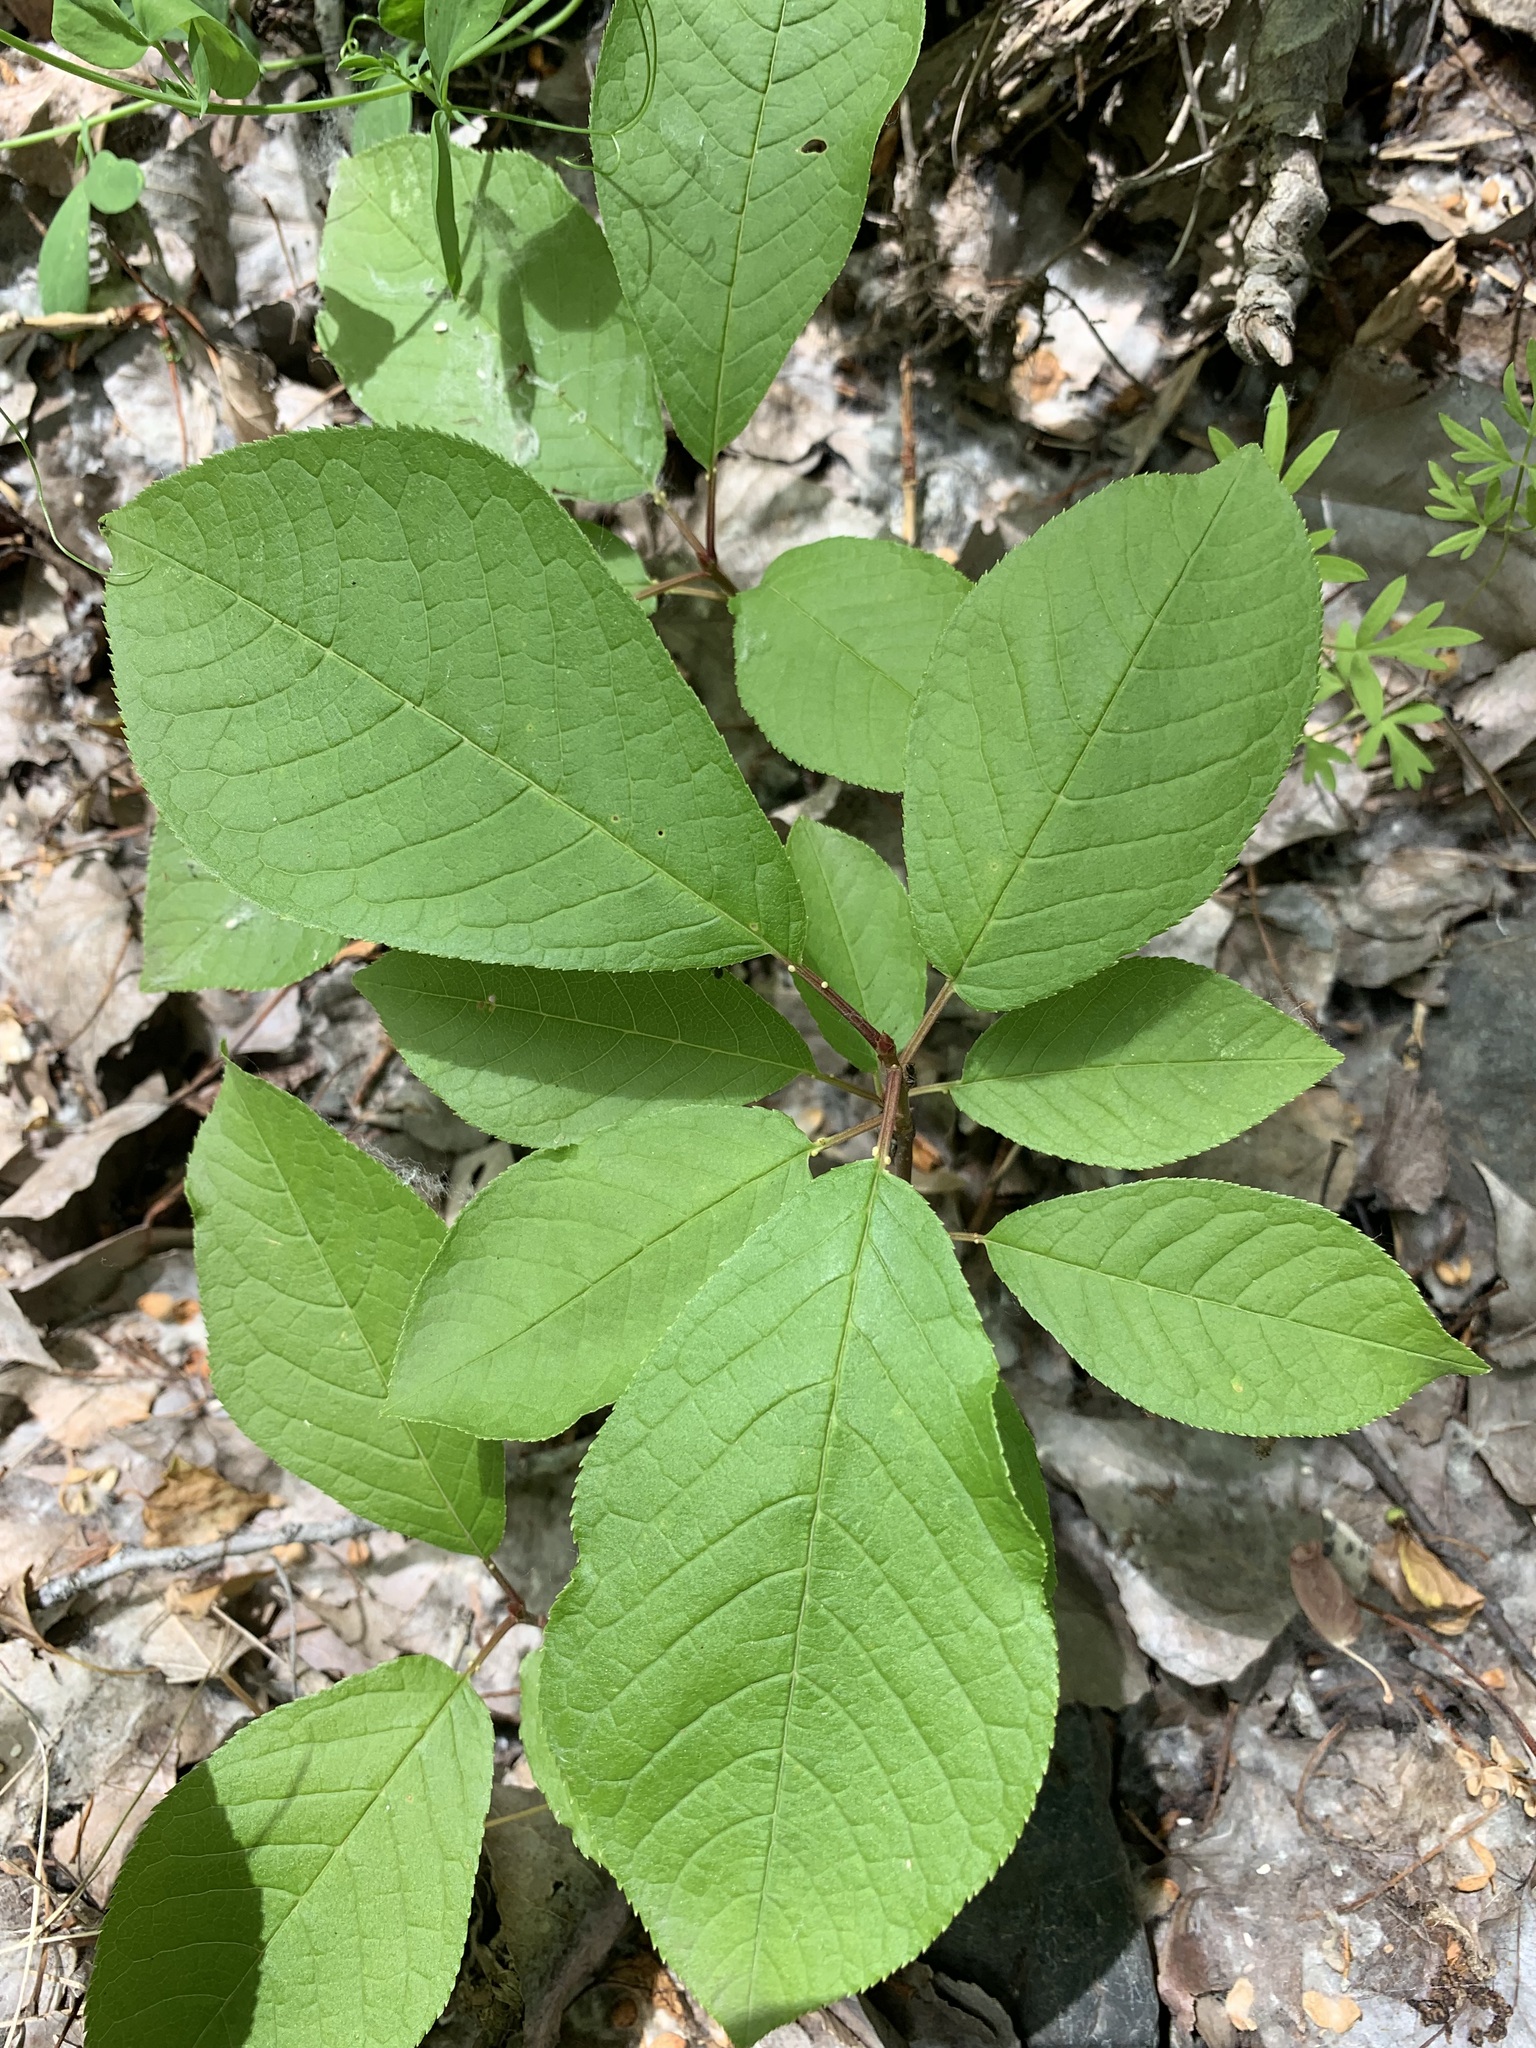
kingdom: Plantae
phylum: Tracheophyta
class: Magnoliopsida
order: Rosales
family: Rosaceae
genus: Prunus
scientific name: Prunus padus
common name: Bird cherry
